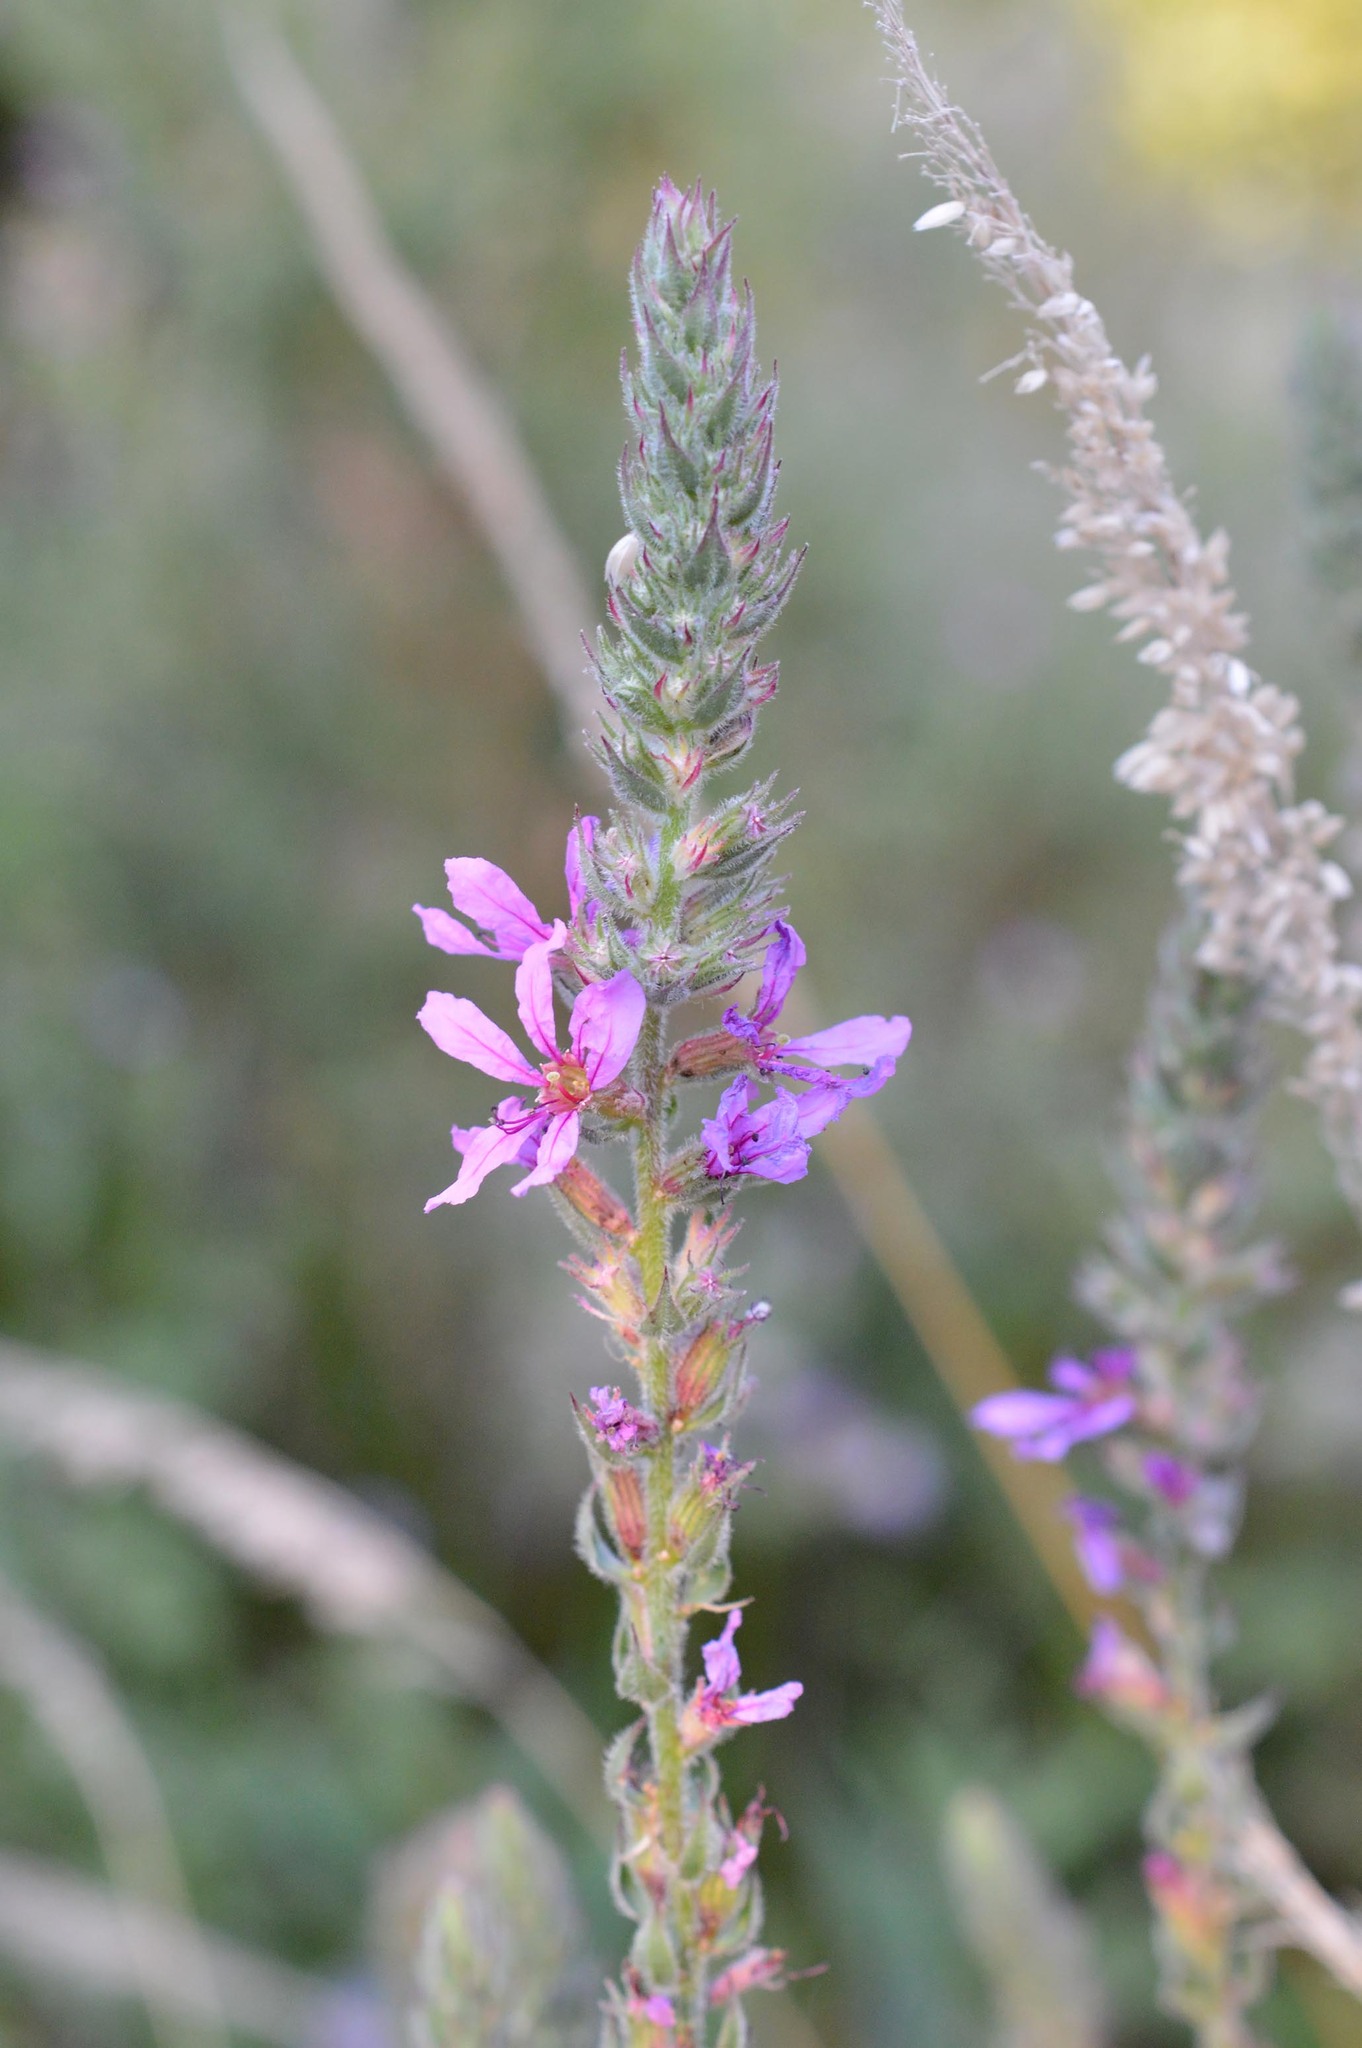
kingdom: Plantae
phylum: Tracheophyta
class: Magnoliopsida
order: Myrtales
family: Lythraceae
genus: Lythrum
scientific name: Lythrum salicaria
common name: Purple loosestrife
